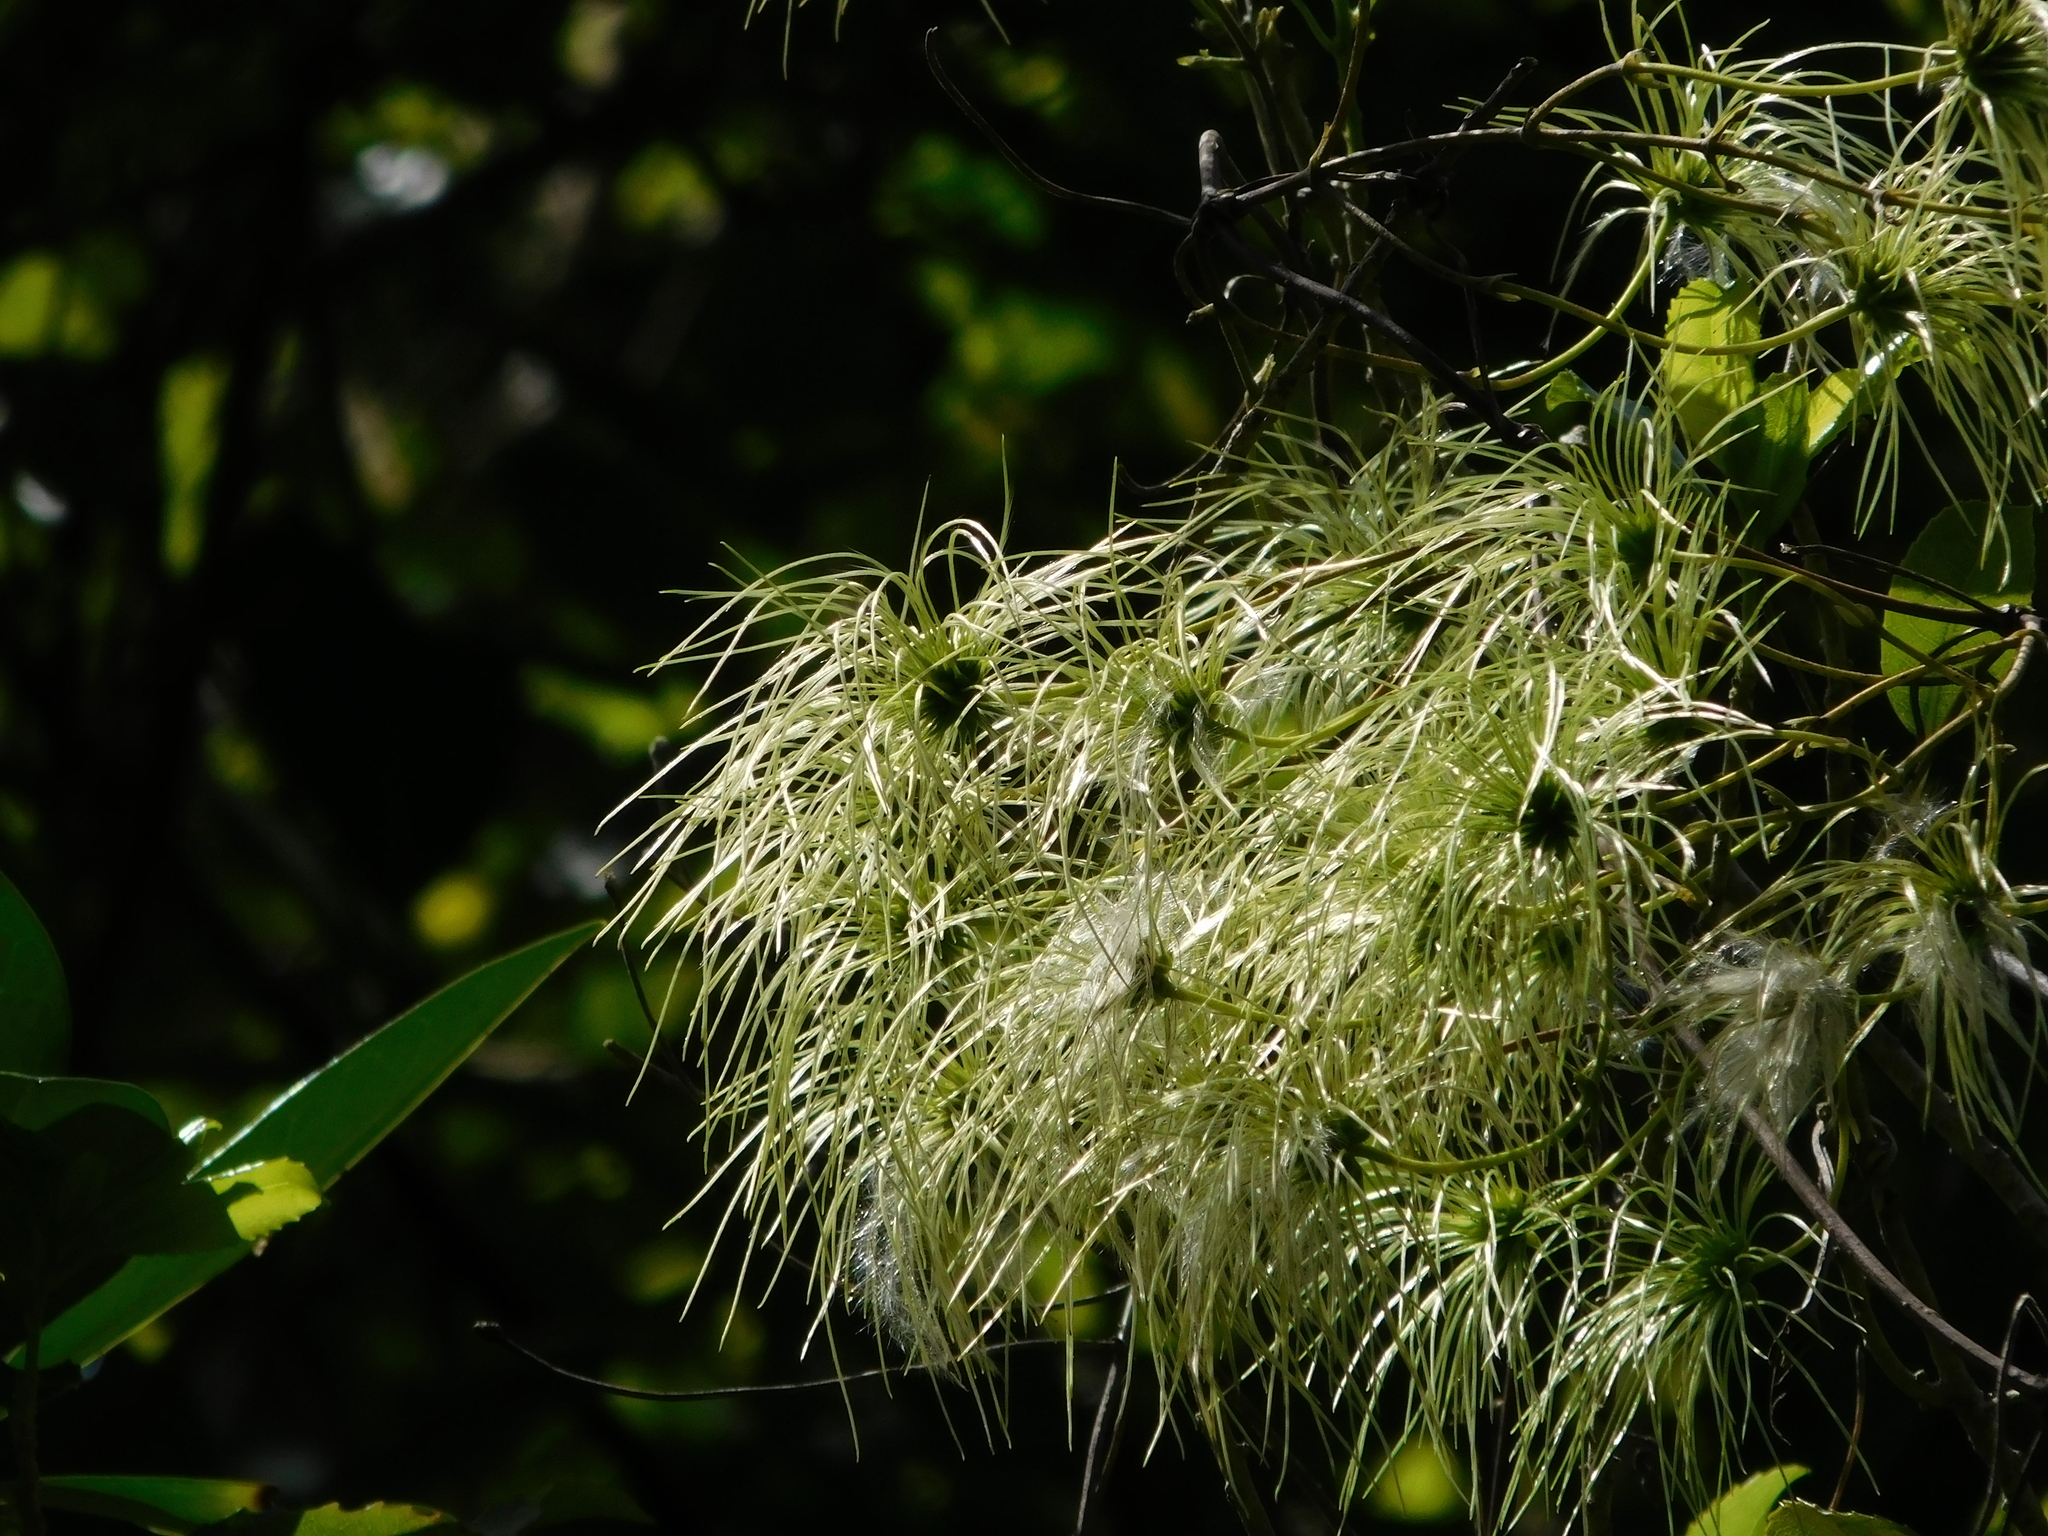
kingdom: Plantae
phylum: Tracheophyta
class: Magnoliopsida
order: Ranunculales
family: Ranunculaceae
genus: Clematis
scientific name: Clematis paniculata
